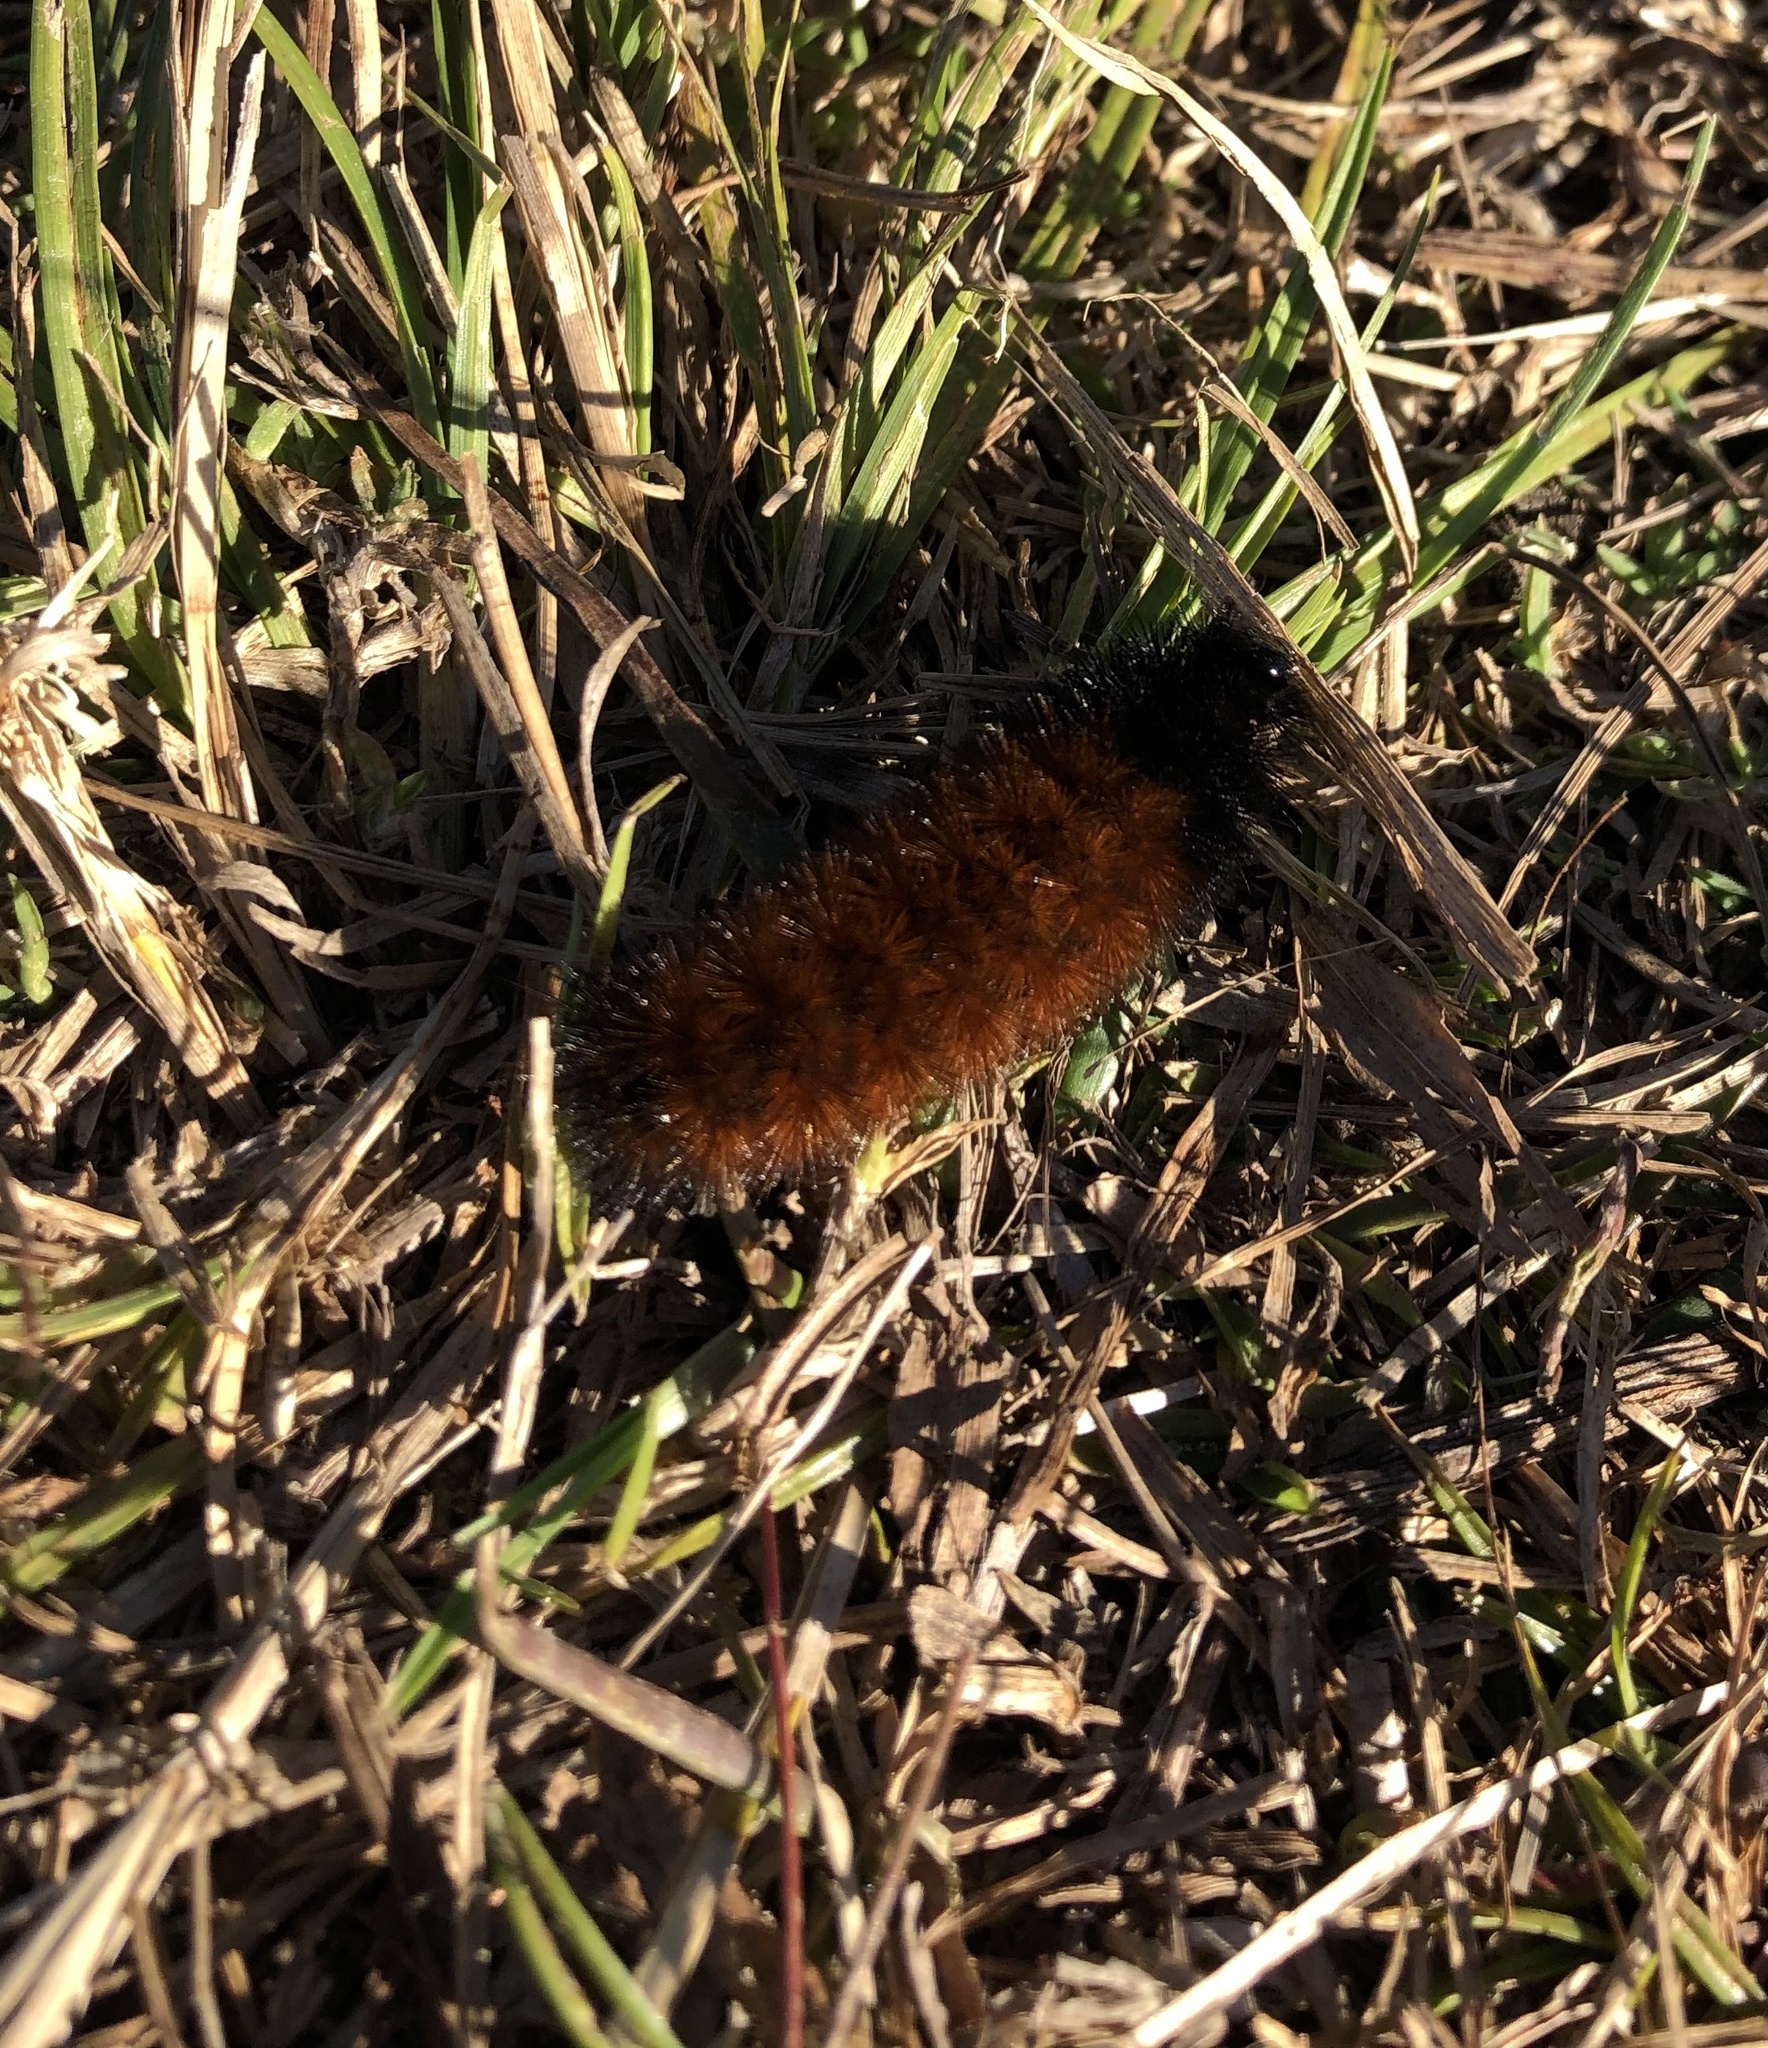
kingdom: Animalia
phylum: Arthropoda
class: Insecta
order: Lepidoptera
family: Erebidae
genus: Pyrrharctia
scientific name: Pyrrharctia isabella
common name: Isabella tiger moth
